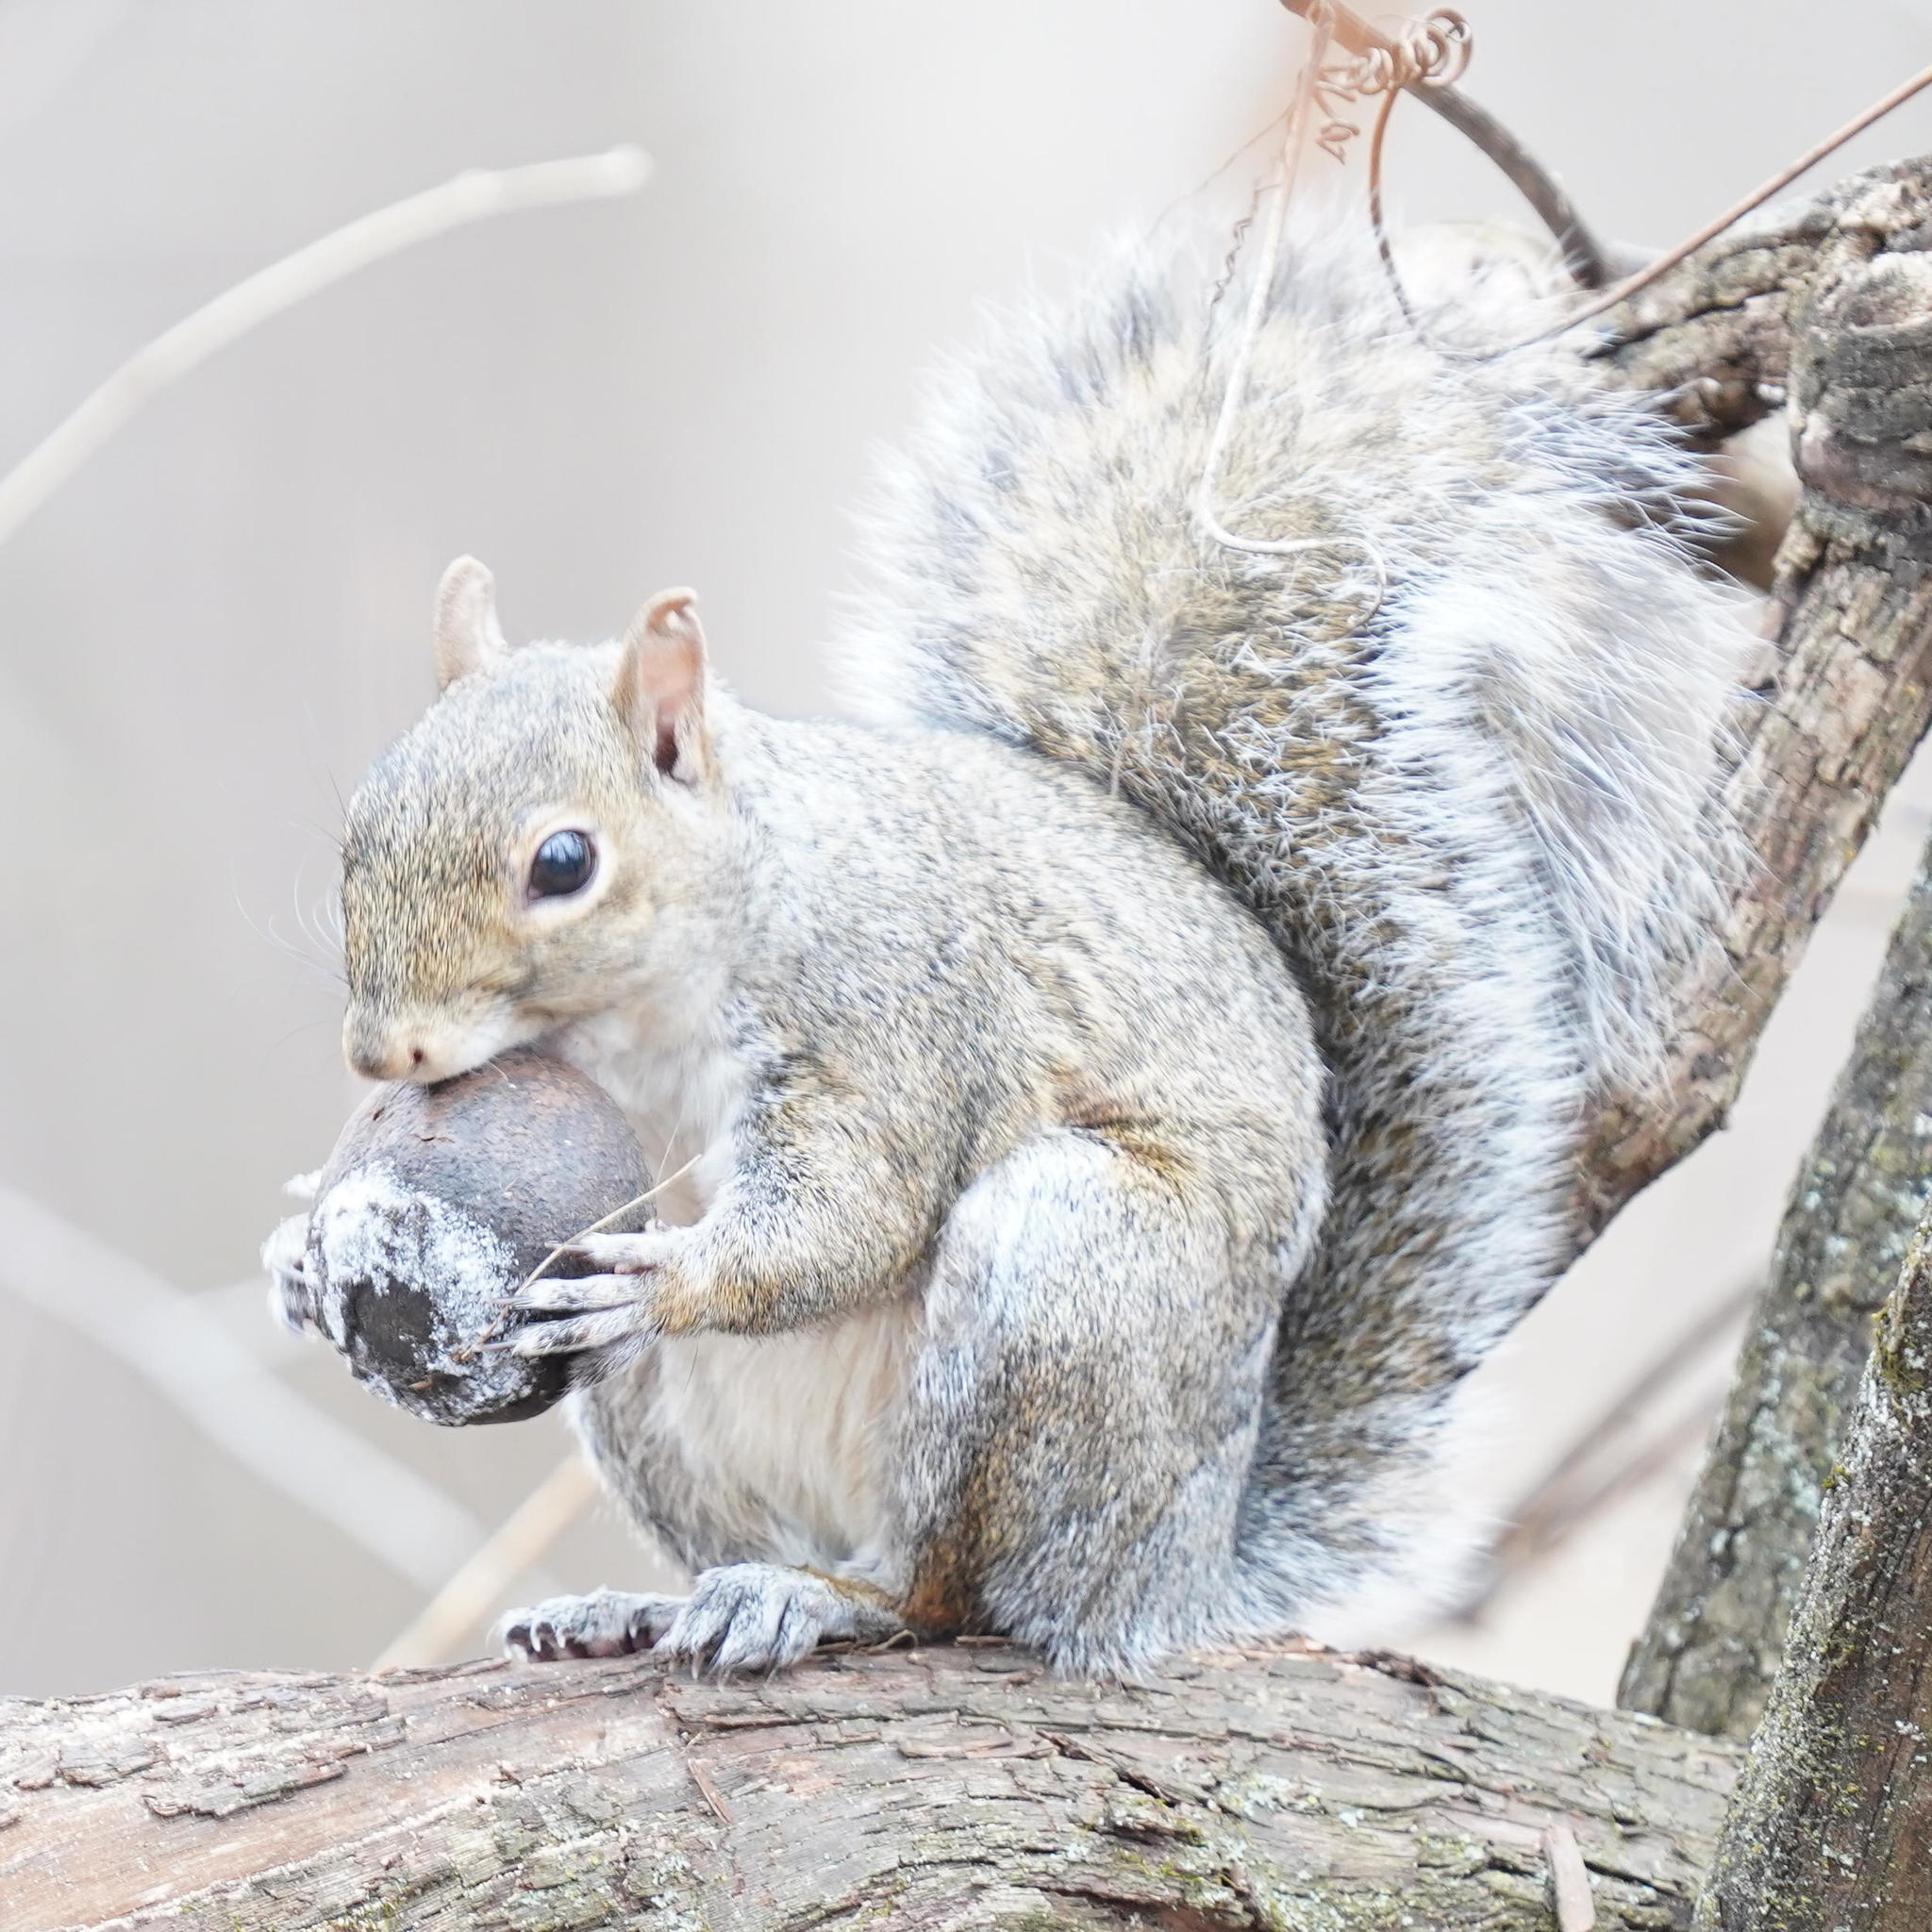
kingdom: Animalia
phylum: Chordata
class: Mammalia
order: Rodentia
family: Sciuridae
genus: Sciurus
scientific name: Sciurus carolinensis
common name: Eastern gray squirrel
